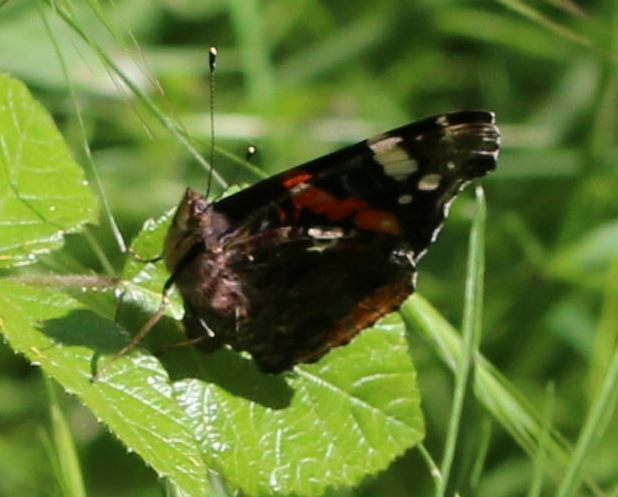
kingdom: Animalia
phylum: Arthropoda
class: Insecta
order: Lepidoptera
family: Nymphalidae
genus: Vanessa
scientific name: Vanessa atalanta
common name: Red admiral
